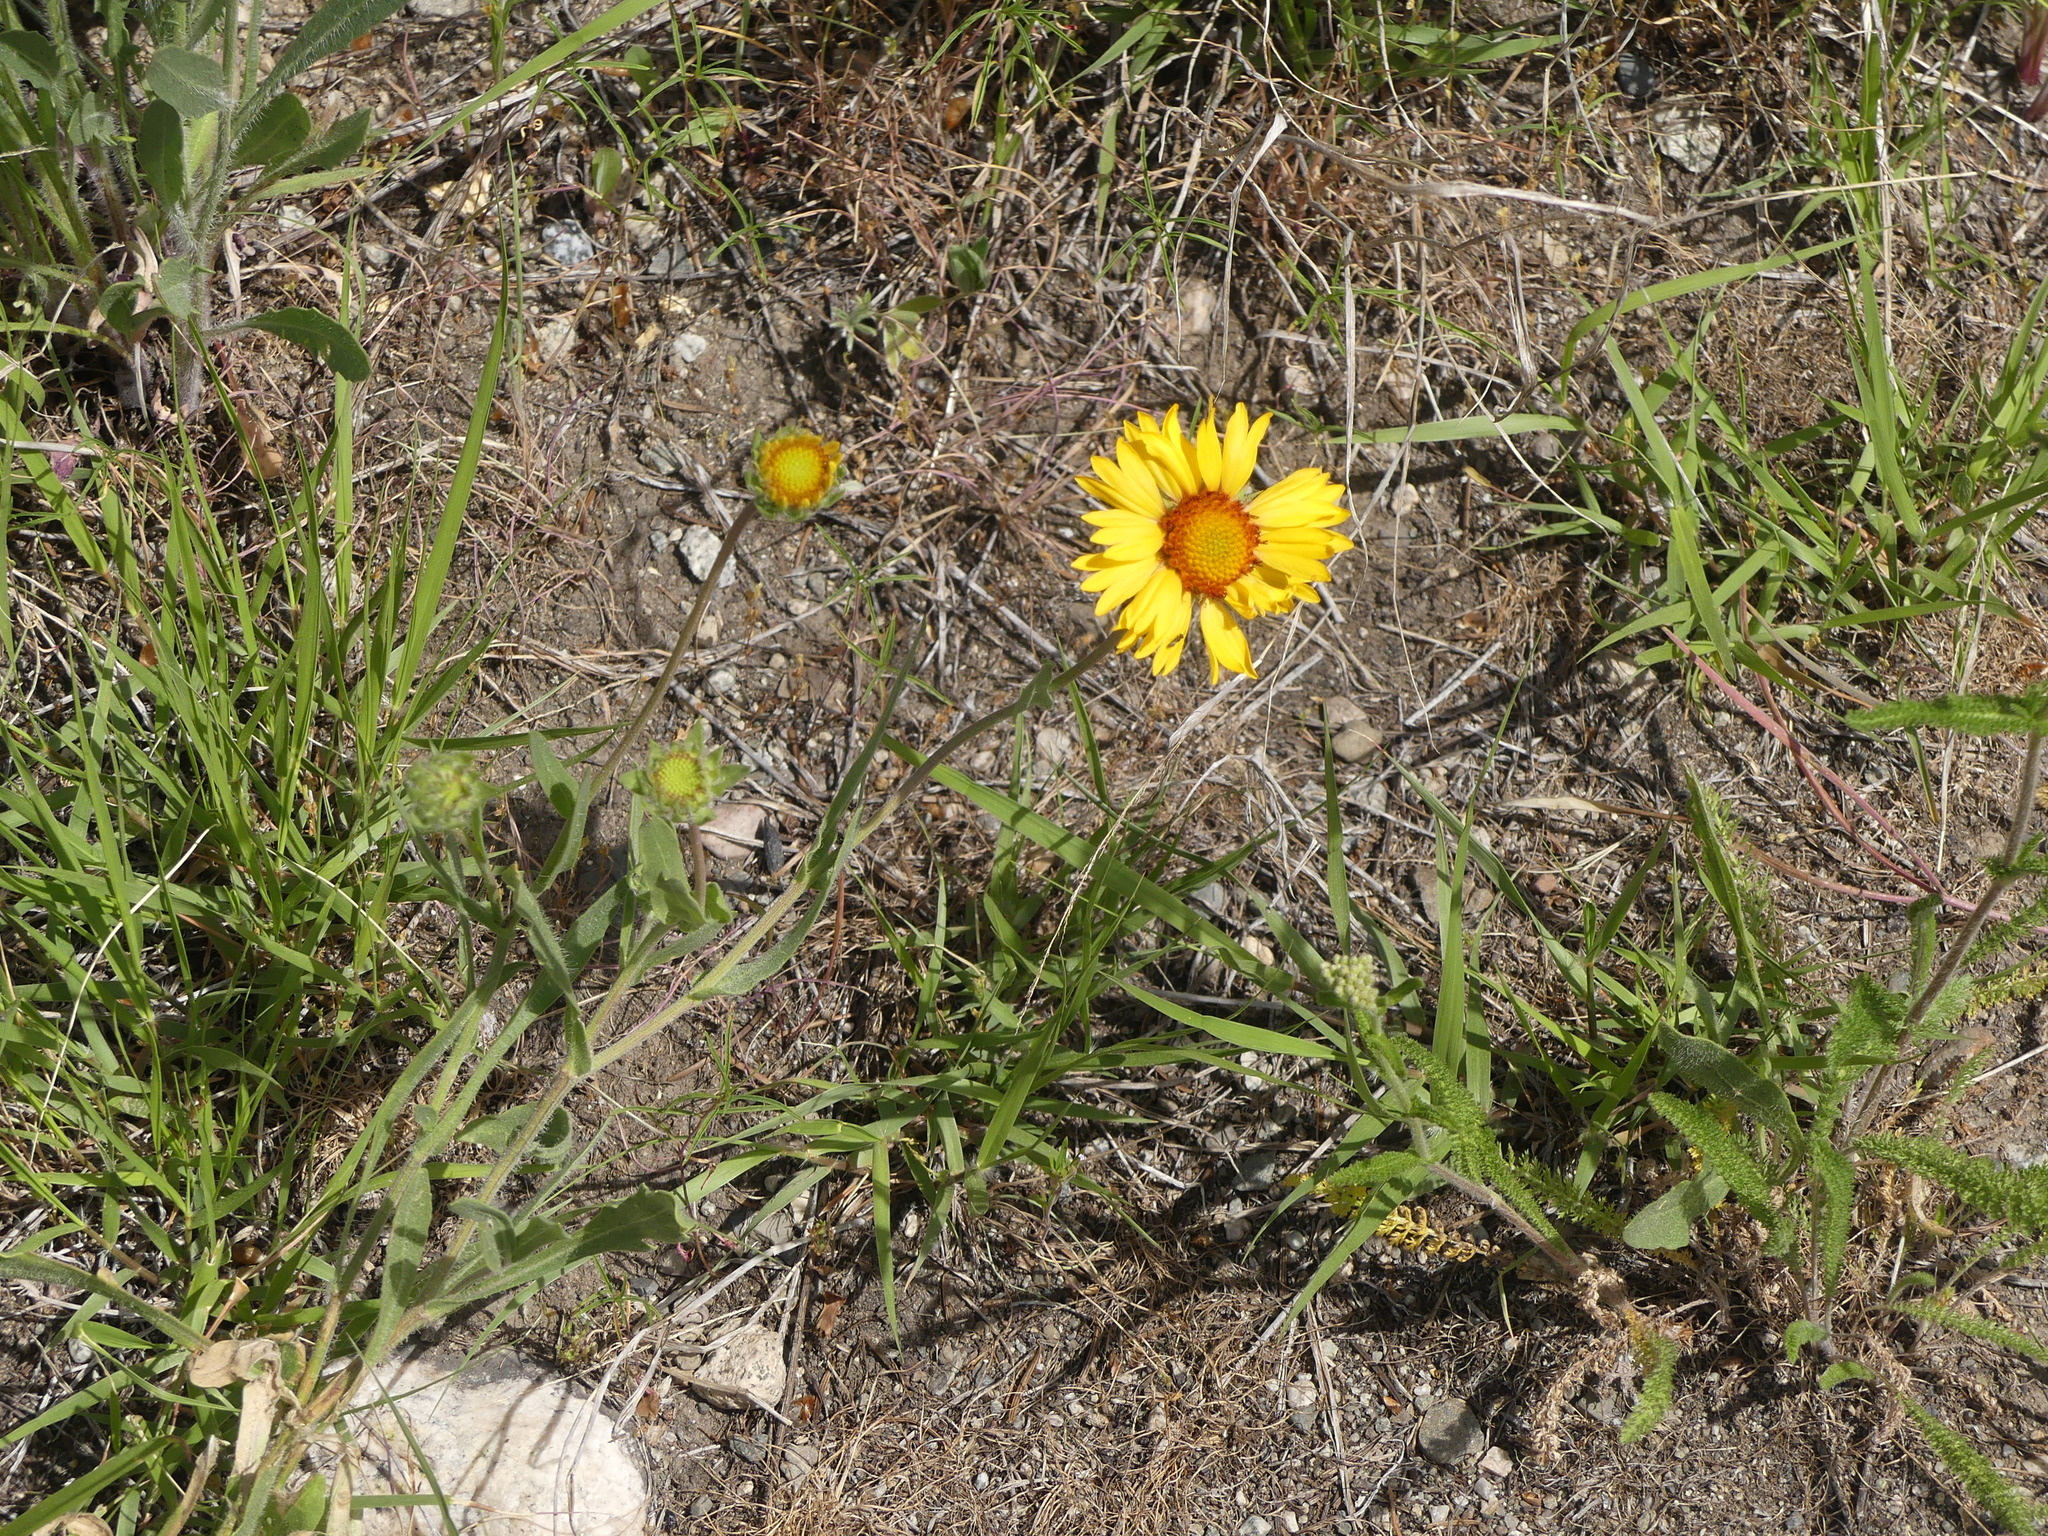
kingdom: Plantae
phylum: Tracheophyta
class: Magnoliopsida
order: Asterales
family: Asteraceae
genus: Gaillardia
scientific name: Gaillardia aristata
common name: Blanket-flower
